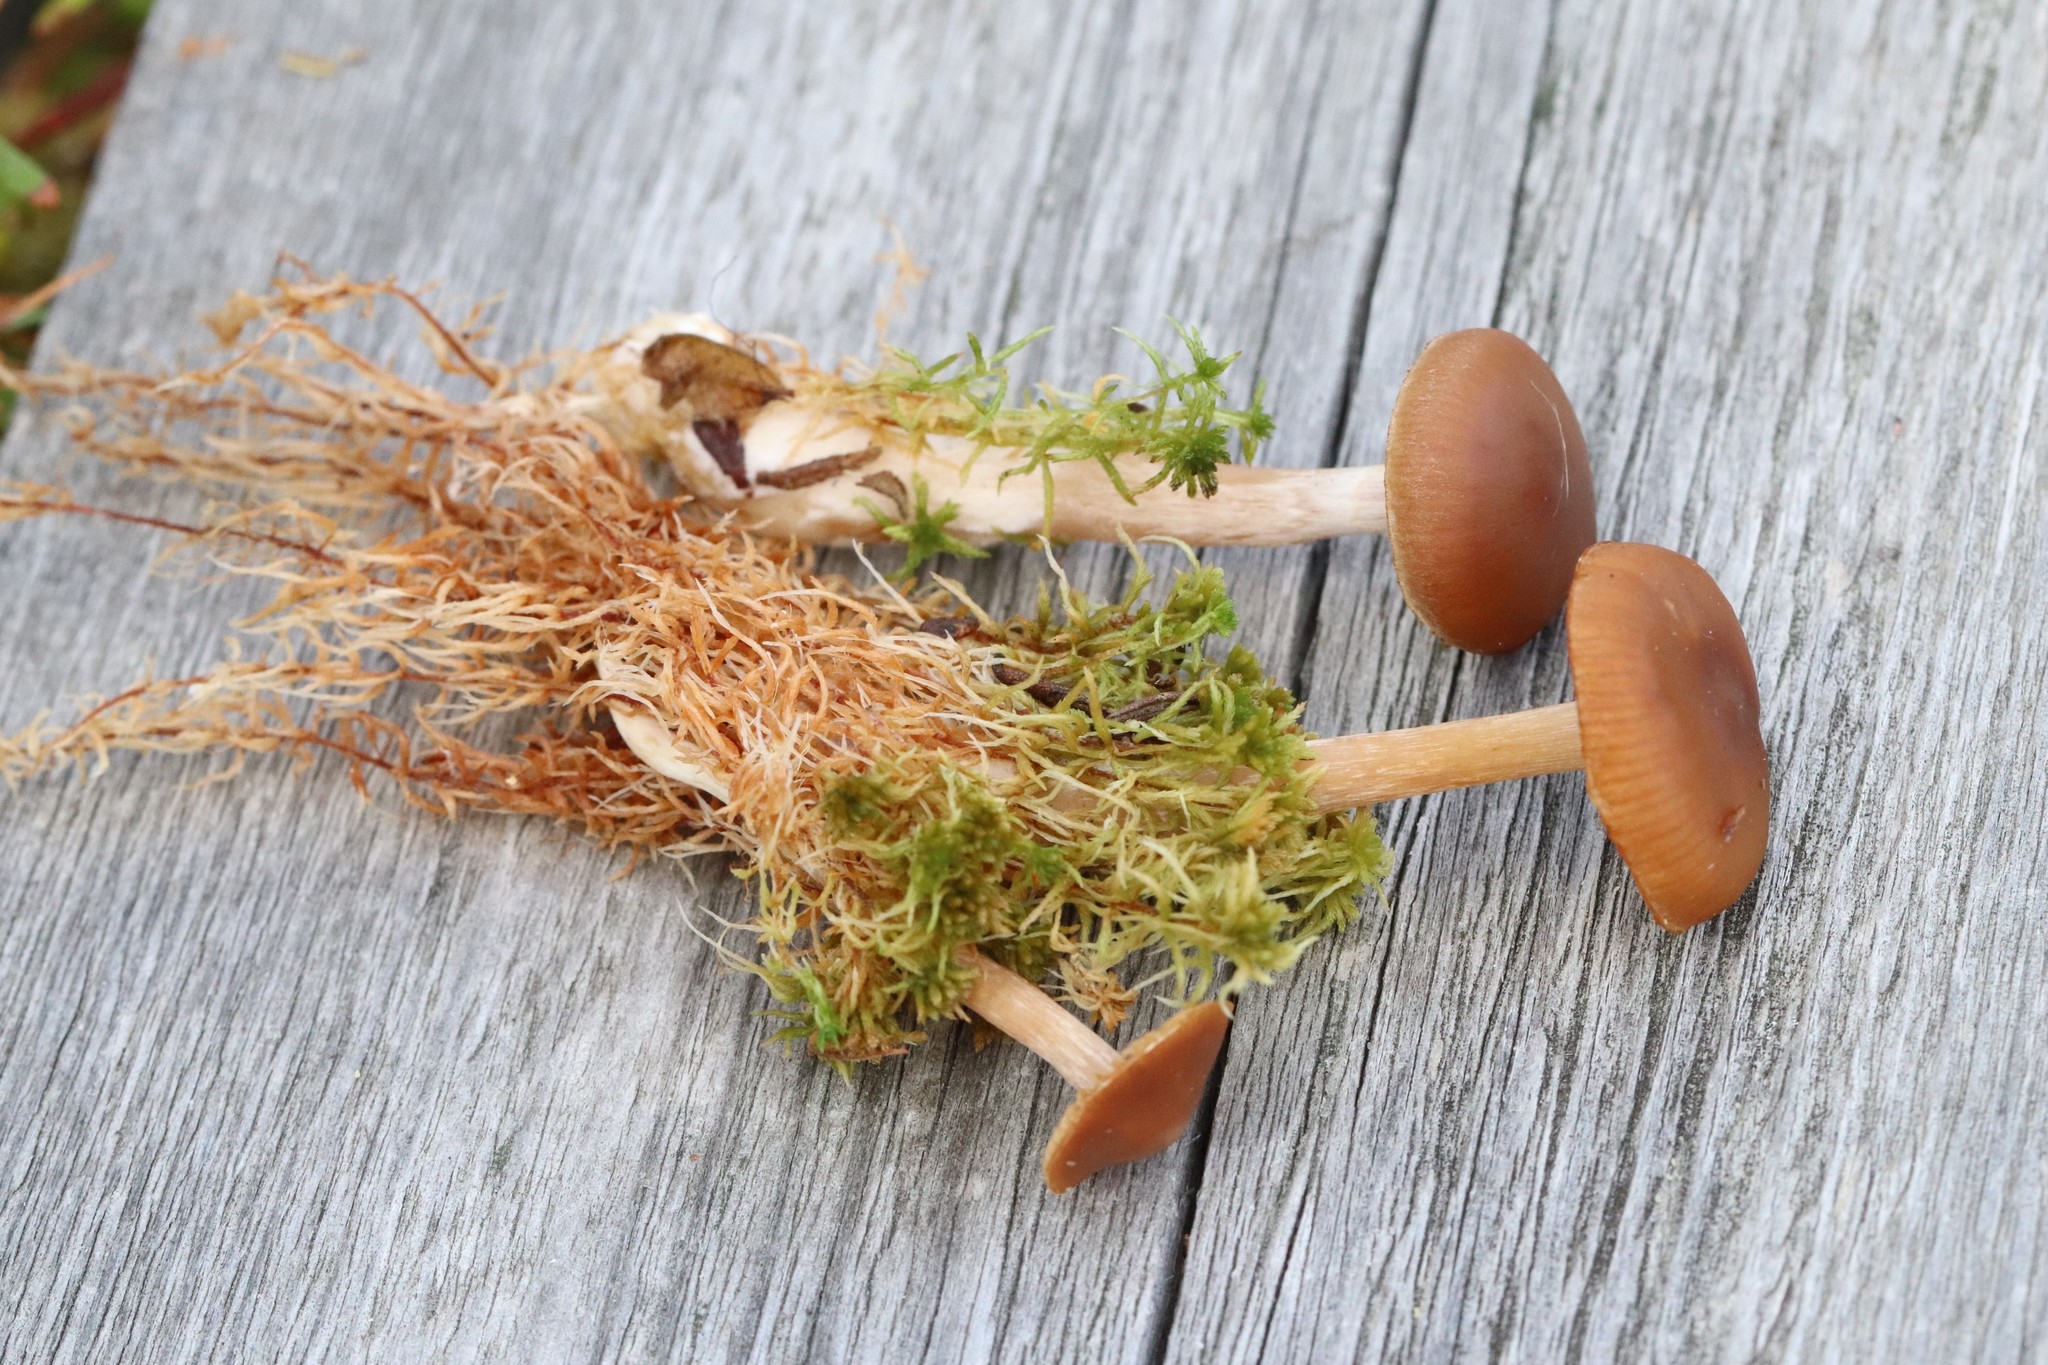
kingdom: Fungi
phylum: Basidiomycota
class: Agaricomycetes
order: Agaricales
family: Cortinariaceae
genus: Cortinarius
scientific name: Cortinarius biformis
